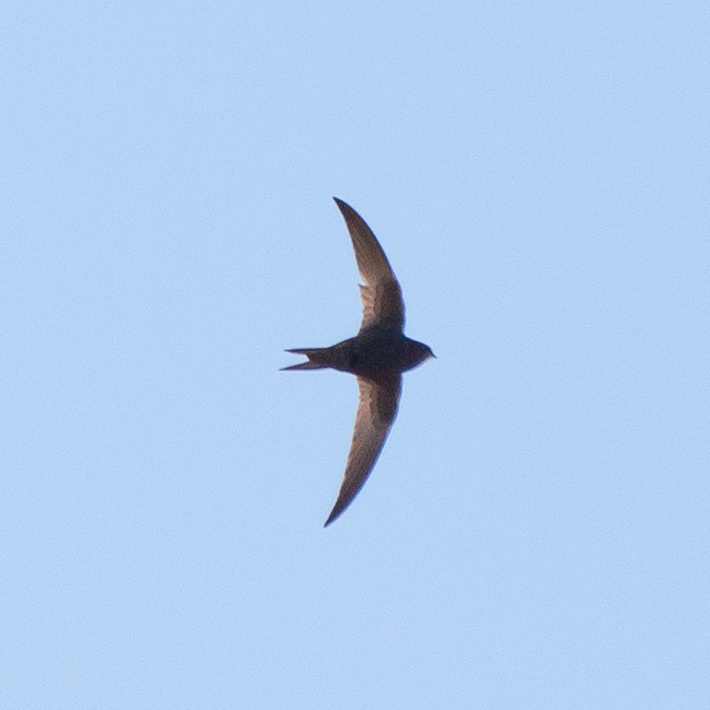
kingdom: Animalia
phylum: Chordata
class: Aves
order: Apodiformes
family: Apodidae
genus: Apus
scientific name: Apus apus
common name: Common swift
